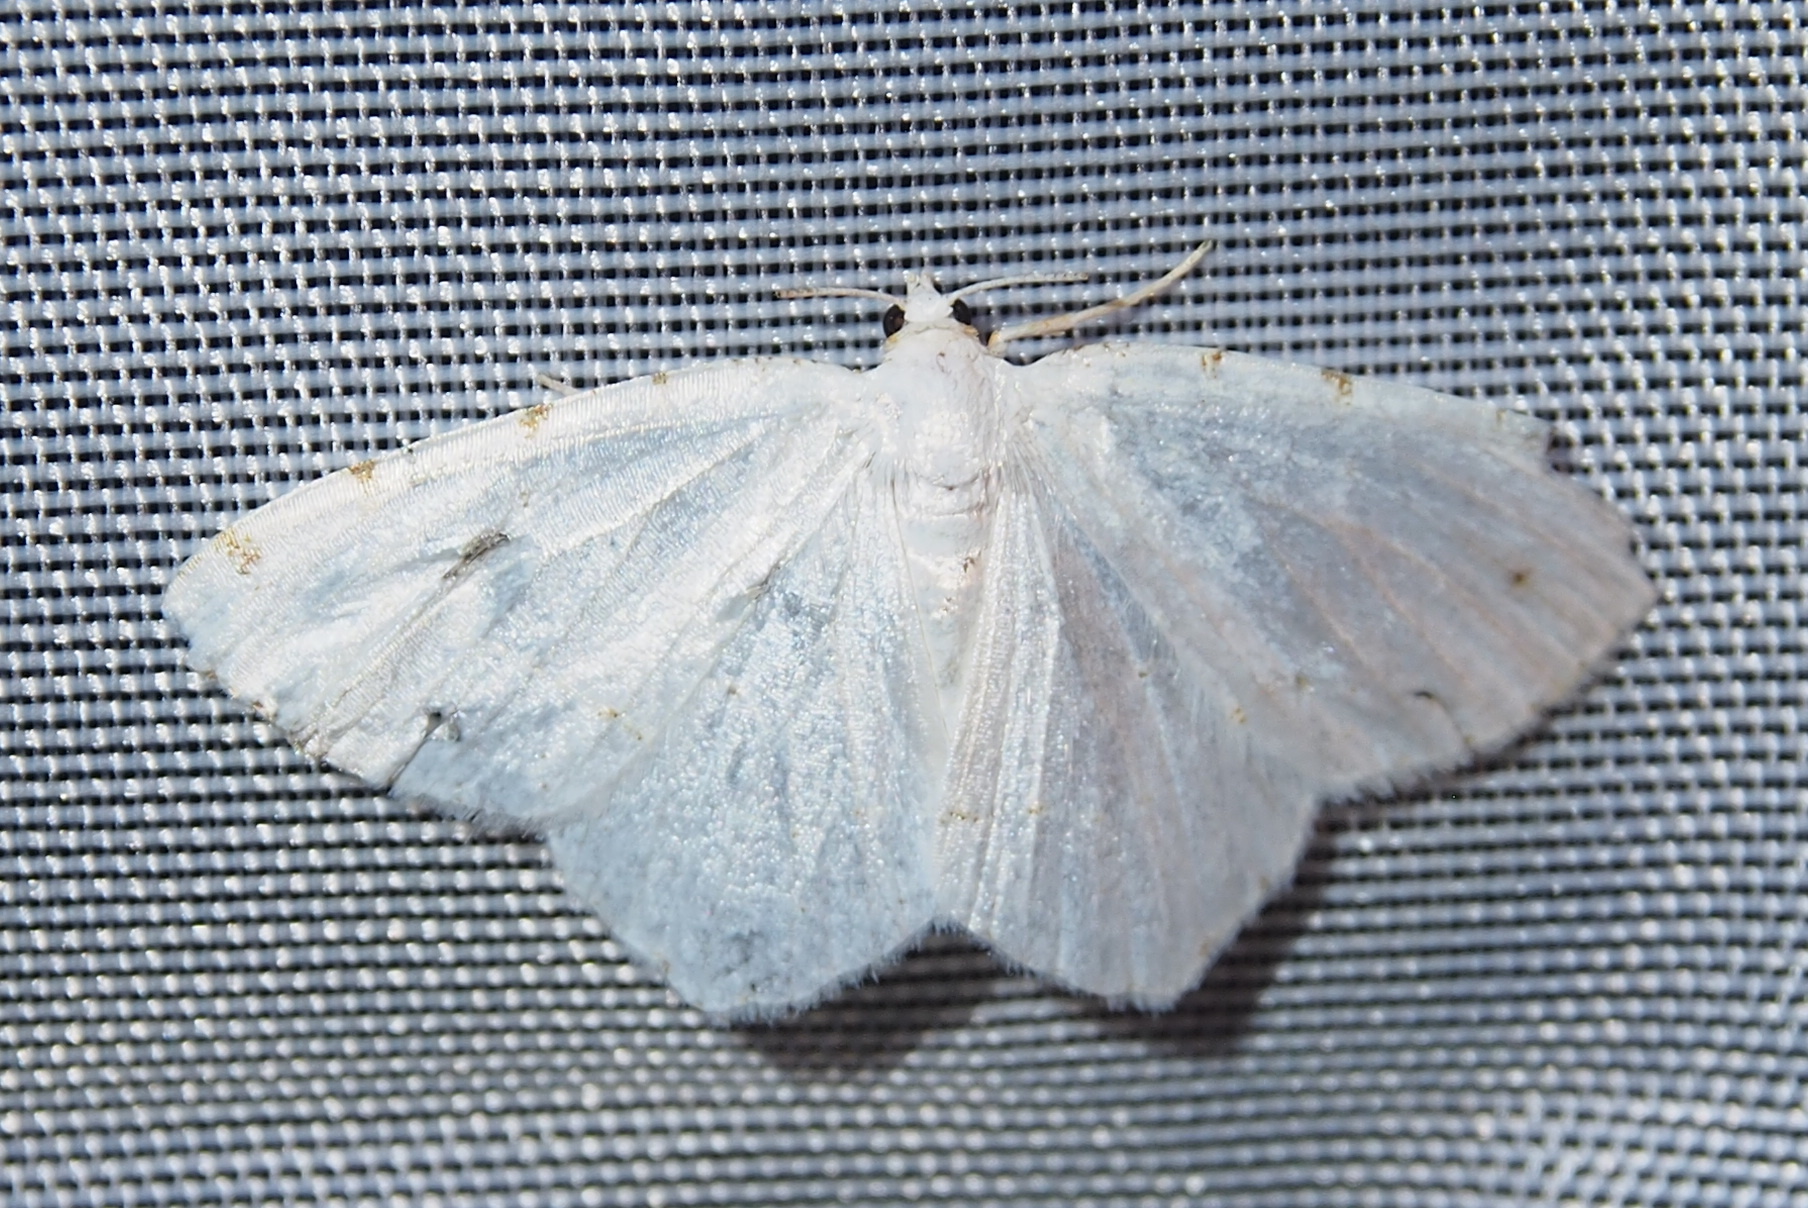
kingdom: Animalia
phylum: Arthropoda
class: Insecta
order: Lepidoptera
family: Geometridae
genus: Macaria
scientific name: Macaria pustularia
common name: Lesser maple spanworm moth
